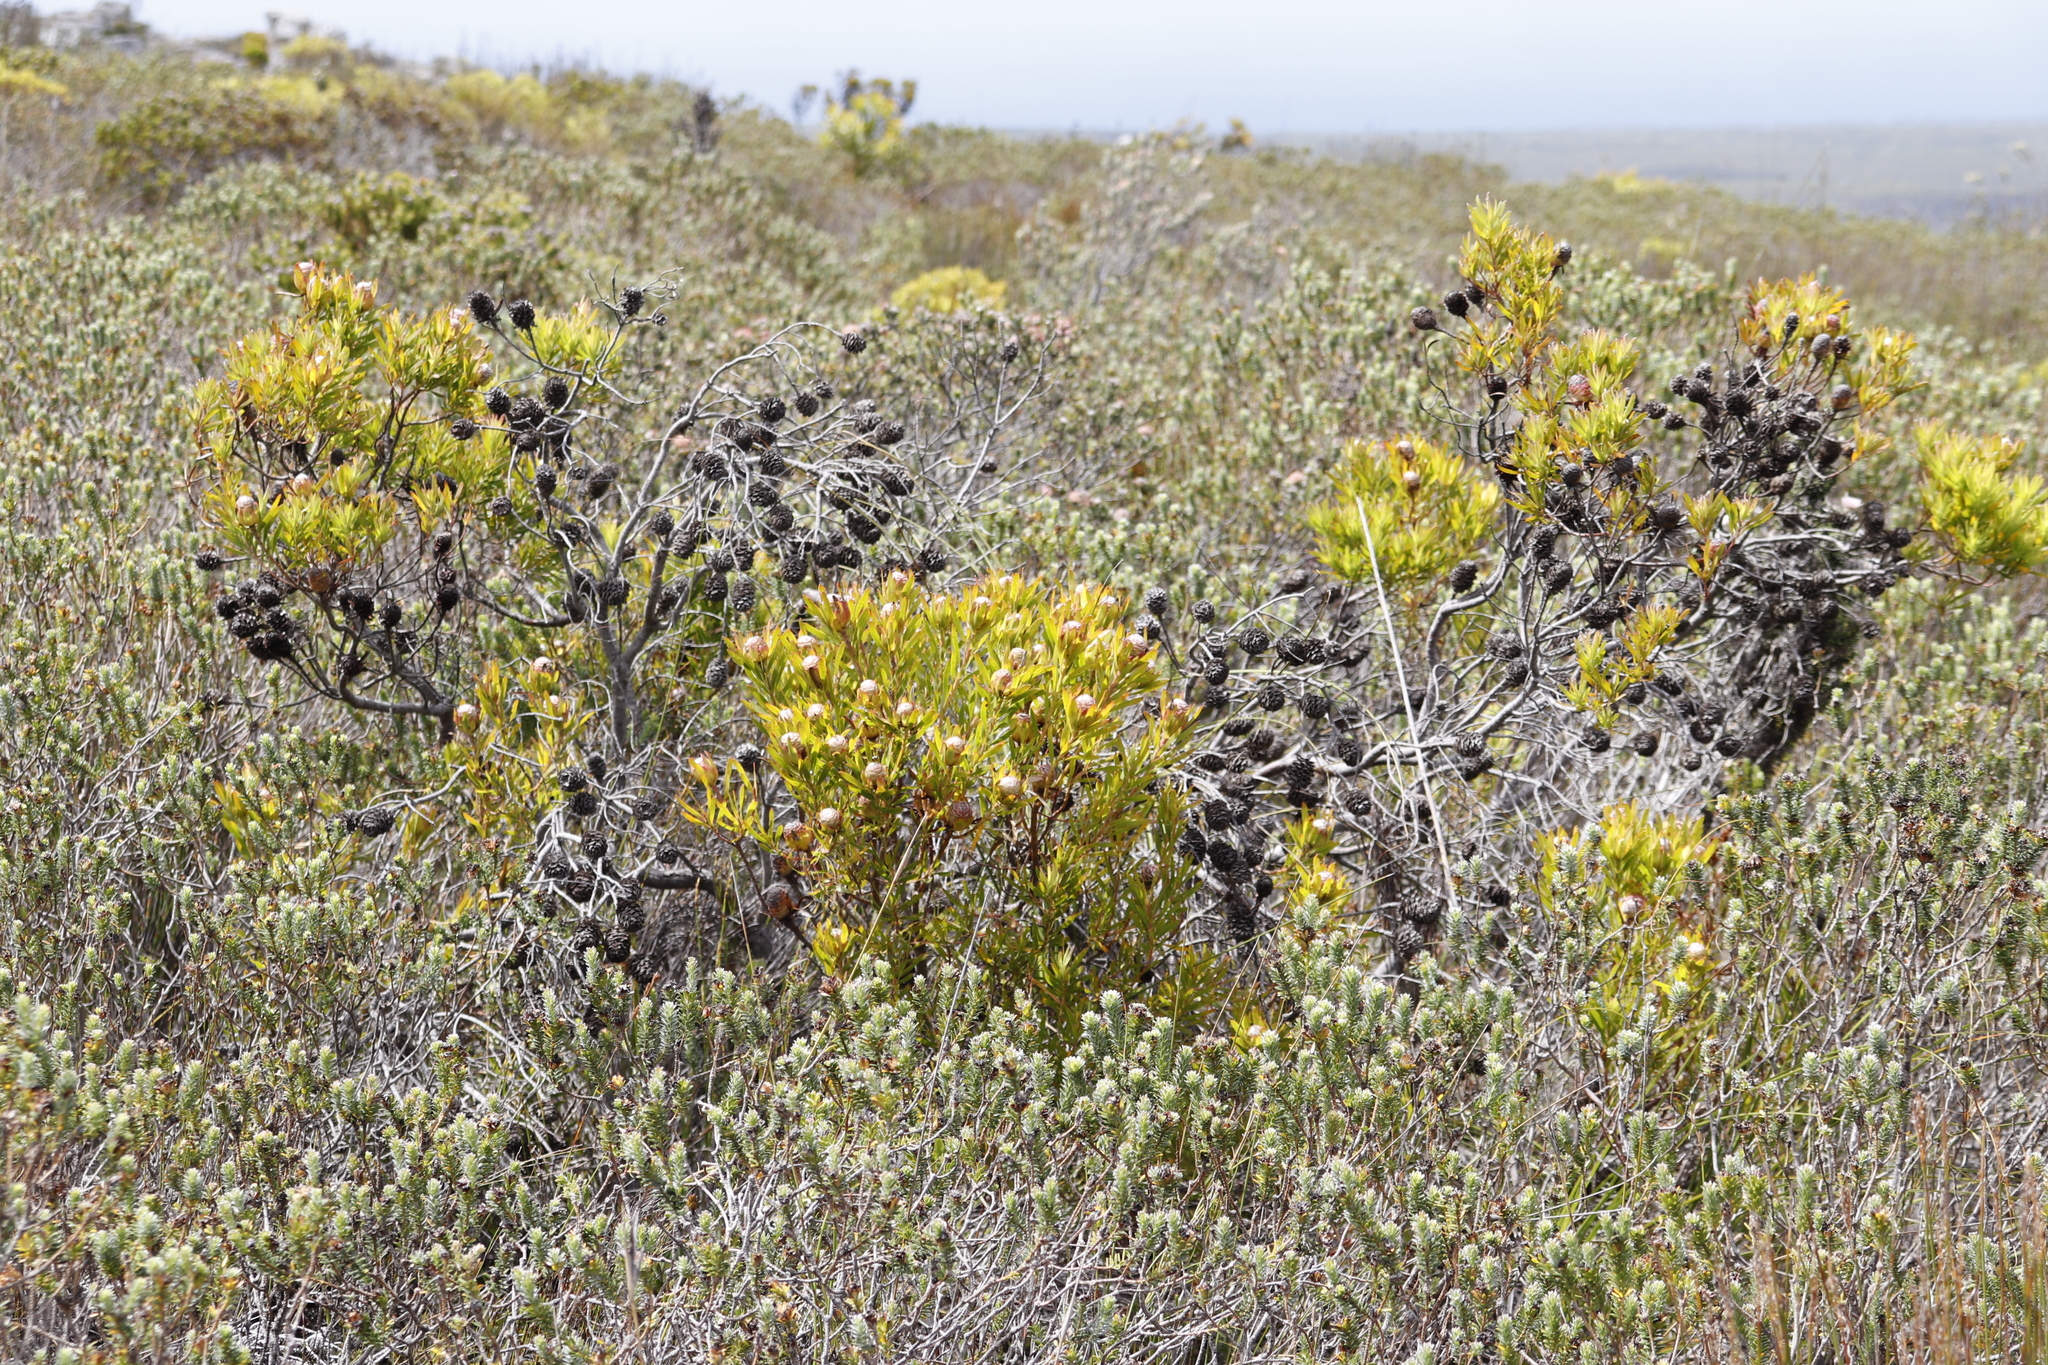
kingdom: Plantae
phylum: Tracheophyta
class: Magnoliopsida
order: Proteales
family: Proteaceae
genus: Leucadendron
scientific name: Leucadendron xanthoconus
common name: Sickle-leaf conebush
